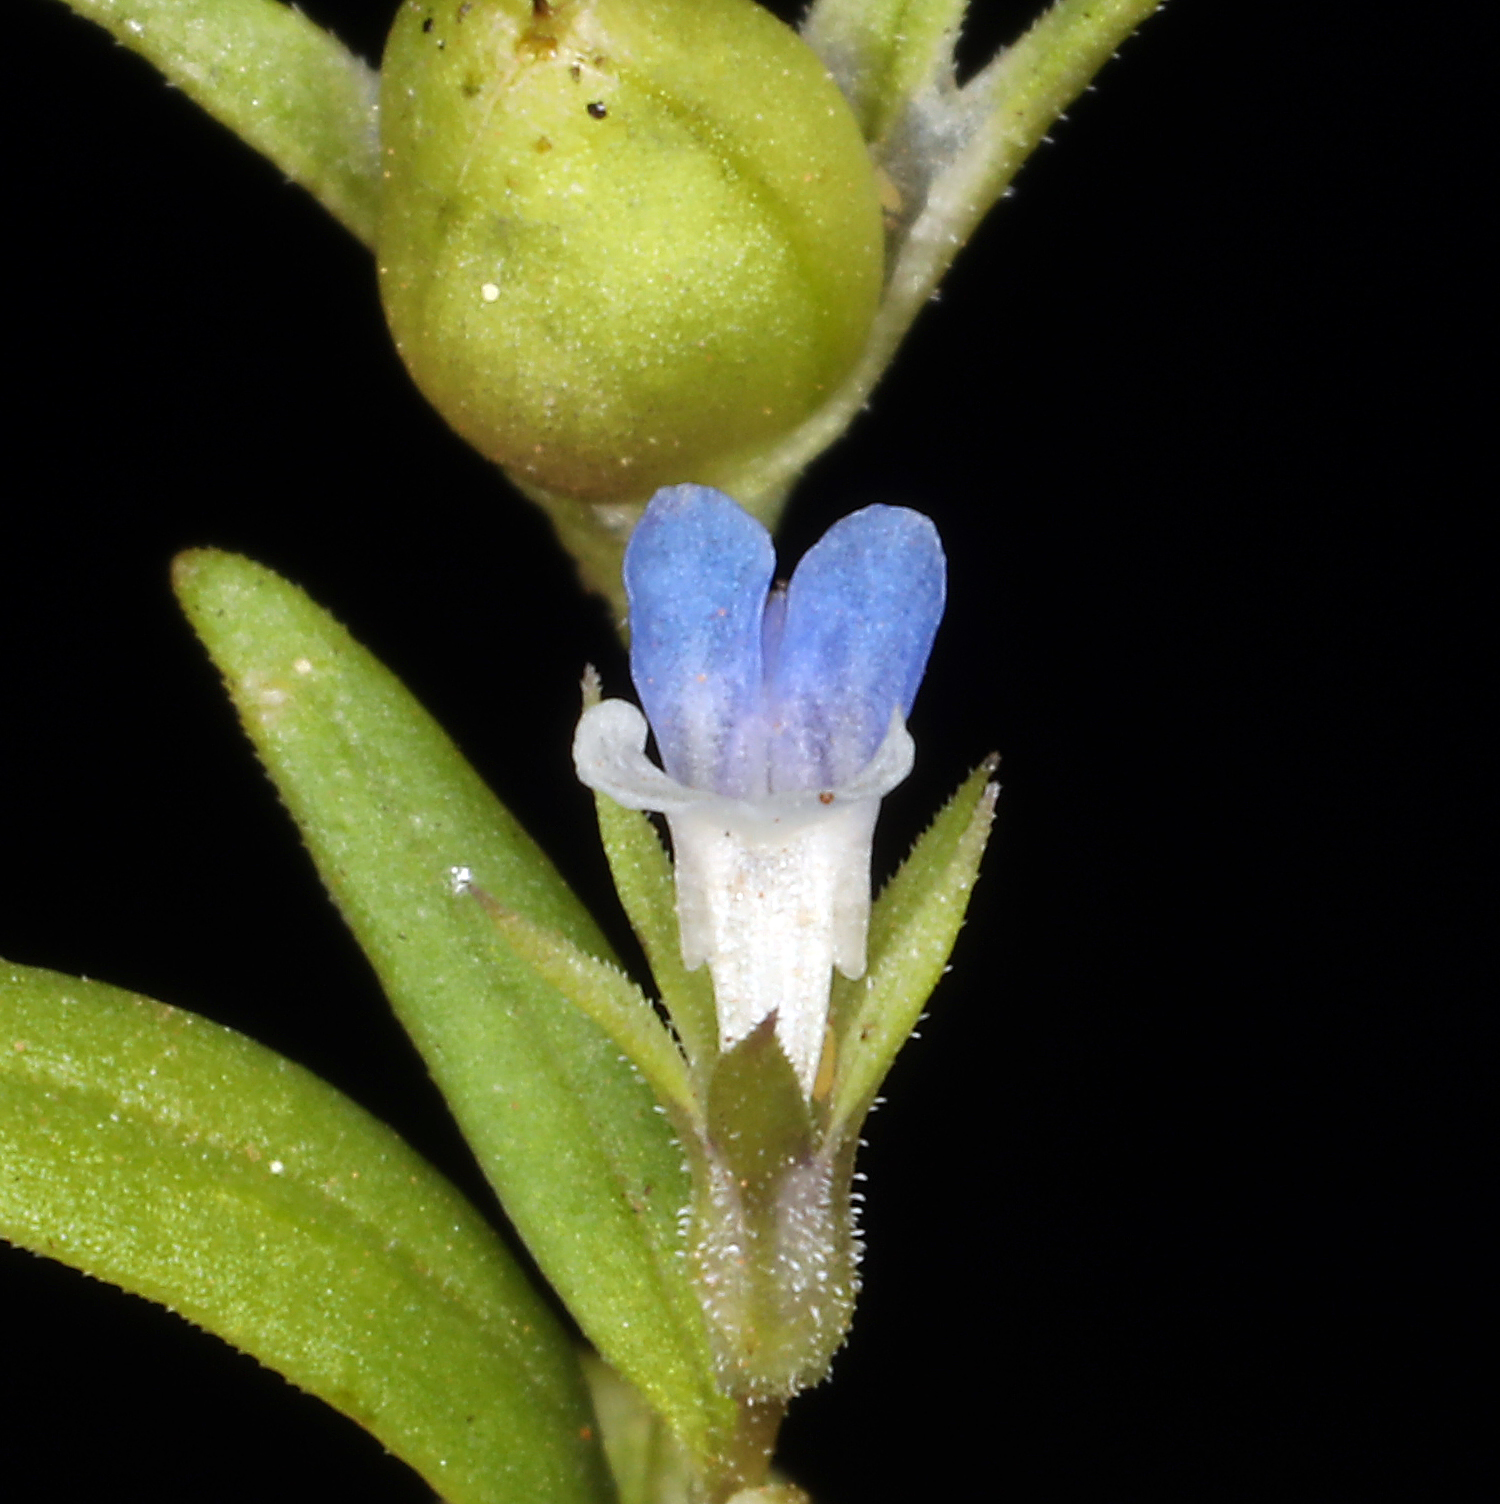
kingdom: Plantae
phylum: Tracheophyta
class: Magnoliopsida
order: Lamiales
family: Plantaginaceae
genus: Collinsia
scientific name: Collinsia parviflora
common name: Blue-lips
